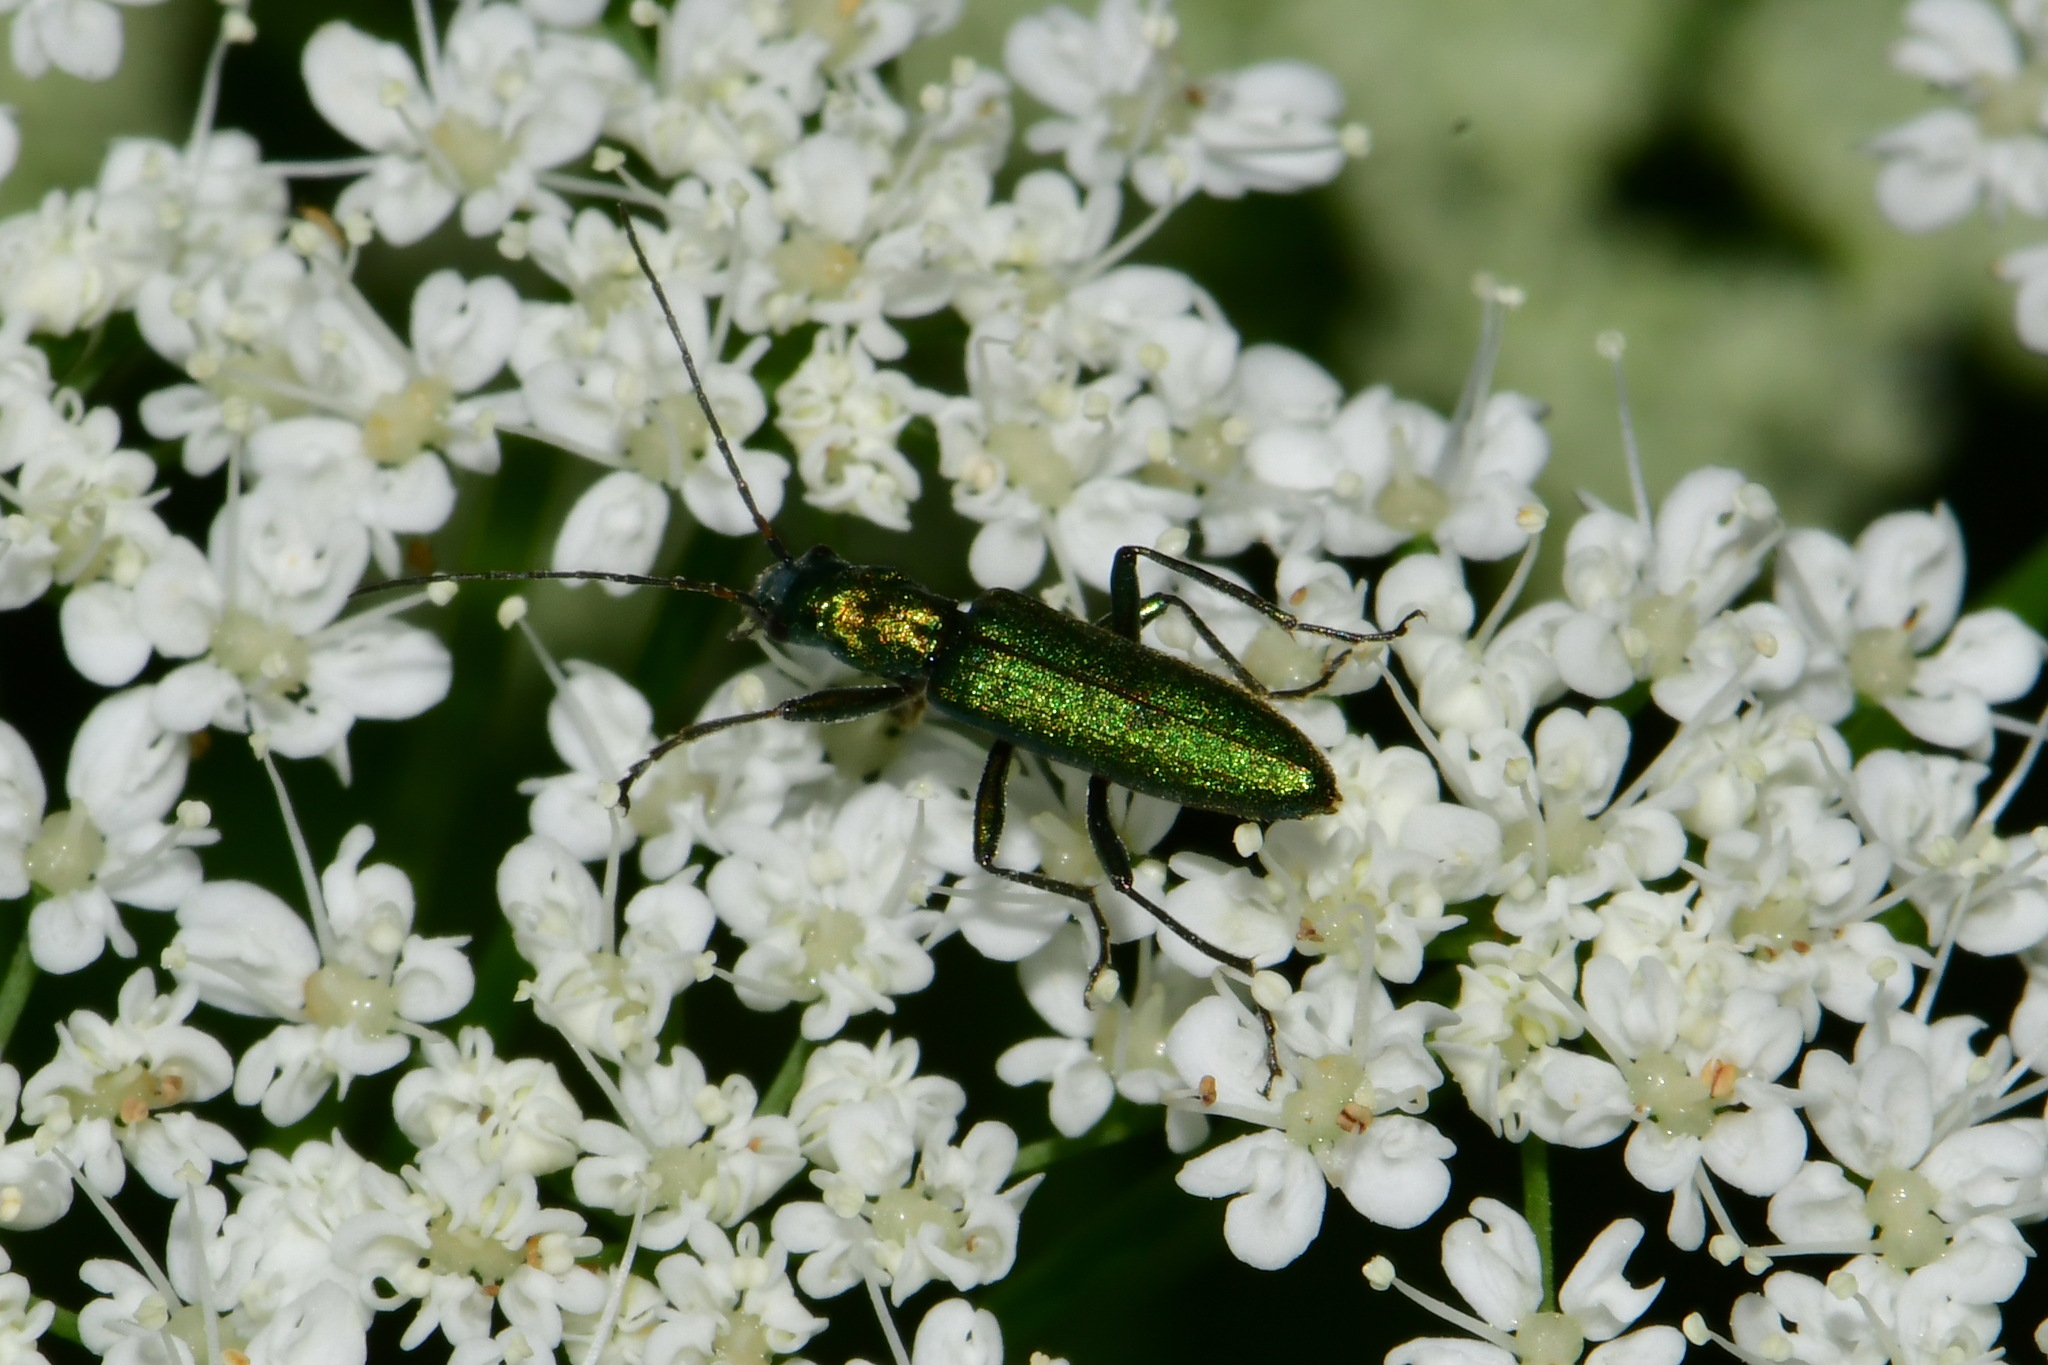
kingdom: Animalia
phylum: Arthropoda
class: Insecta
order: Coleoptera
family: Oedemeridae
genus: Chrysanthia
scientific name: Chrysanthia viridissima
